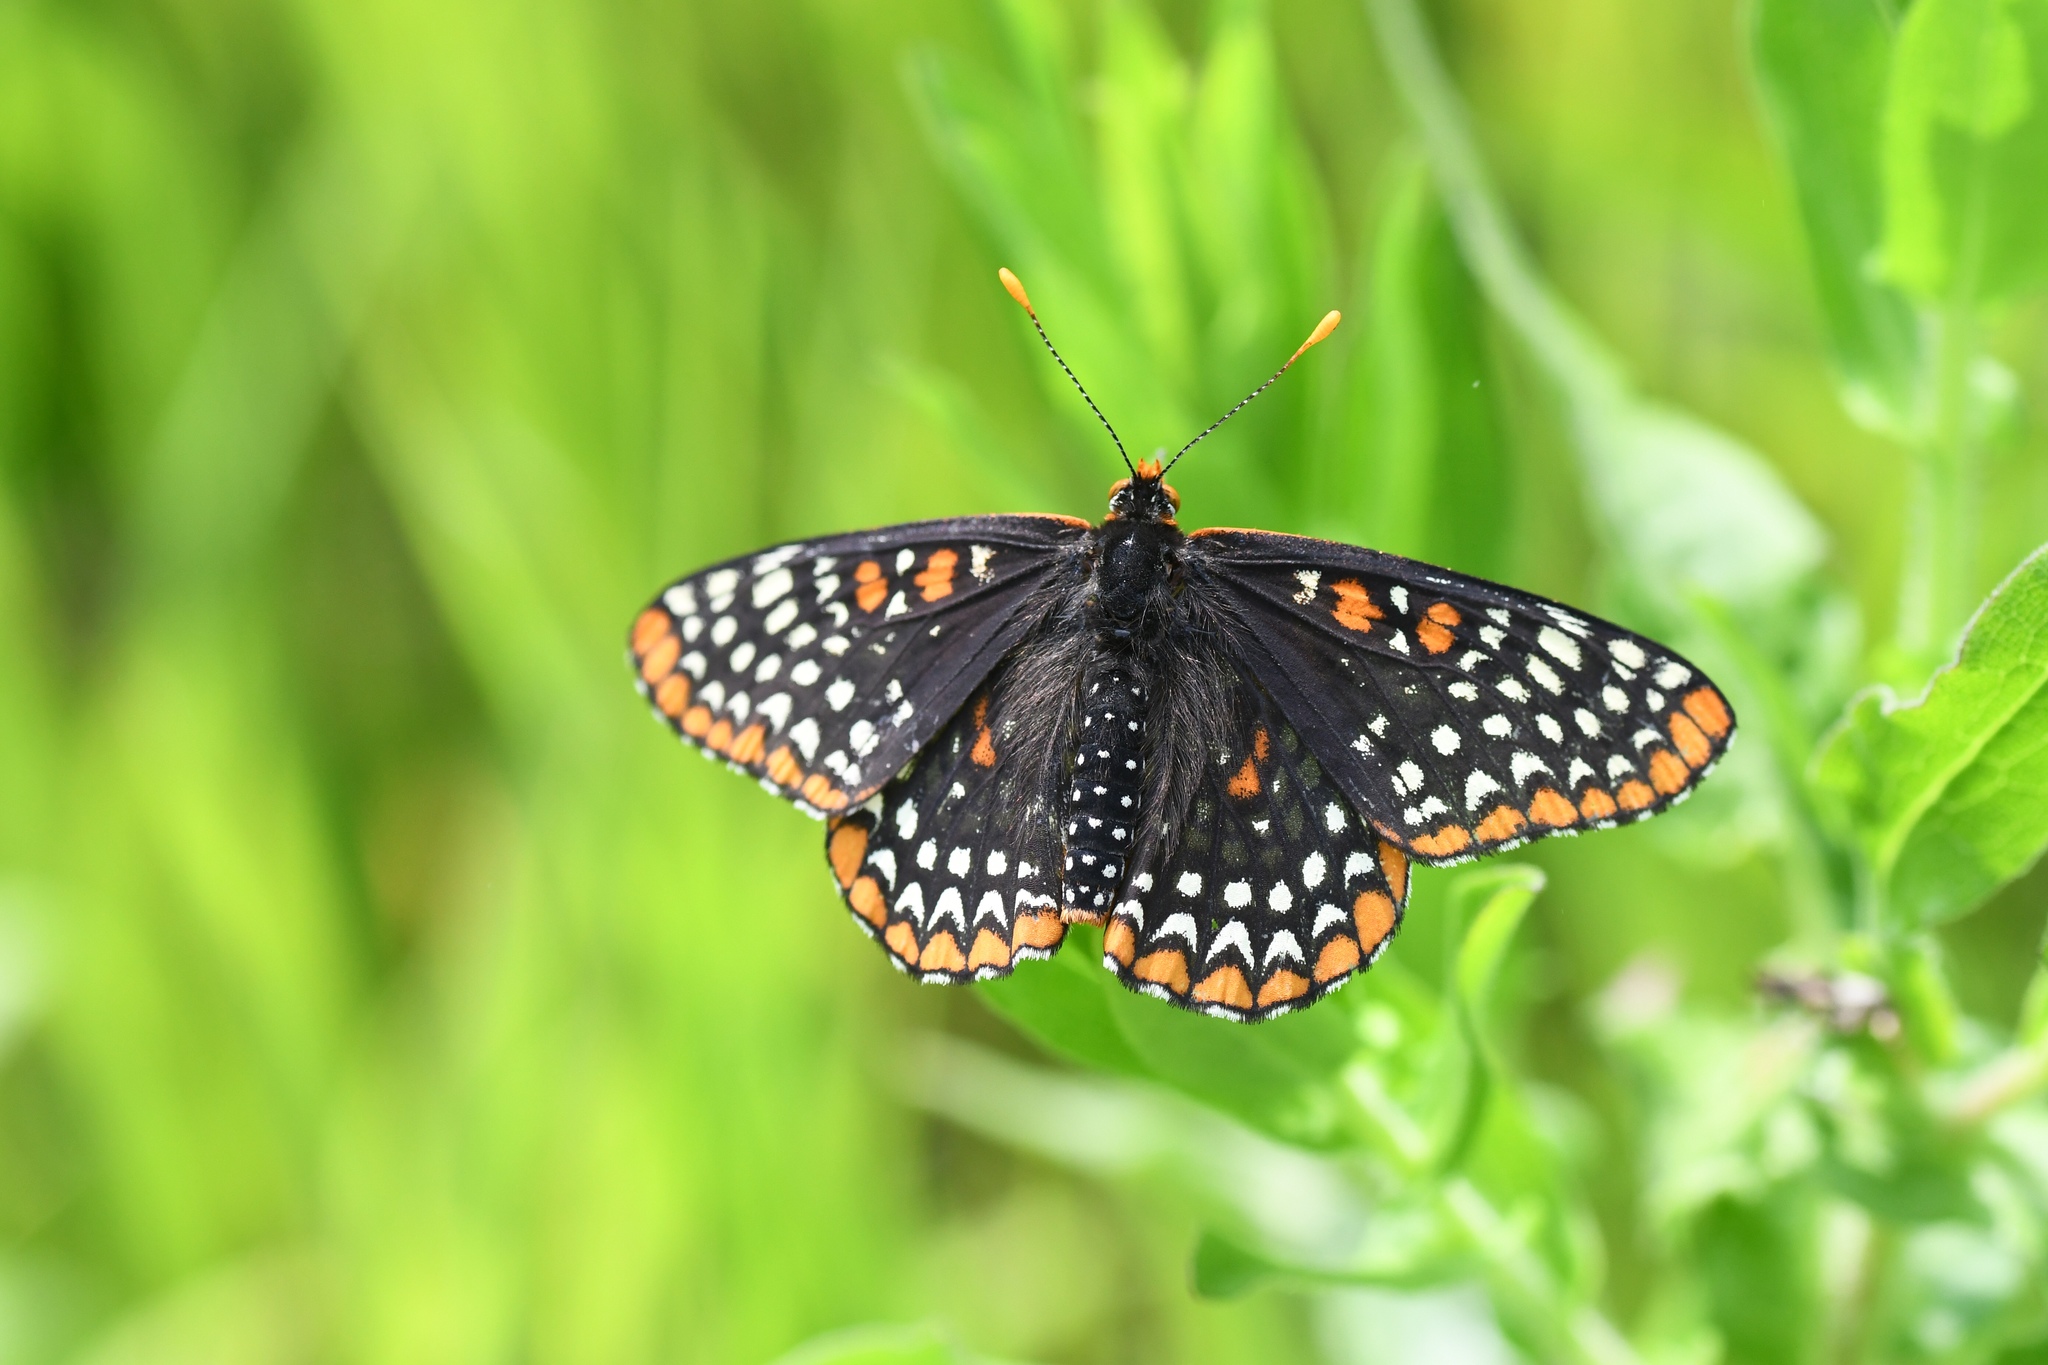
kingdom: Animalia
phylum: Arthropoda
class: Insecta
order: Lepidoptera
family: Nymphalidae
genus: Euphydryas
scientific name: Euphydryas phaeton
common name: Baltimore checkerspot
